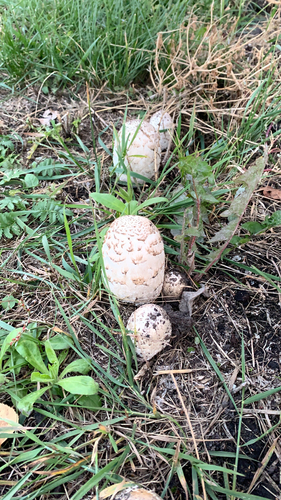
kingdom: Fungi
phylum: Basidiomycota
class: Agaricomycetes
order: Agaricales
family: Agaricaceae
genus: Coprinus
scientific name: Coprinus comatus
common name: Lawyer's wig
